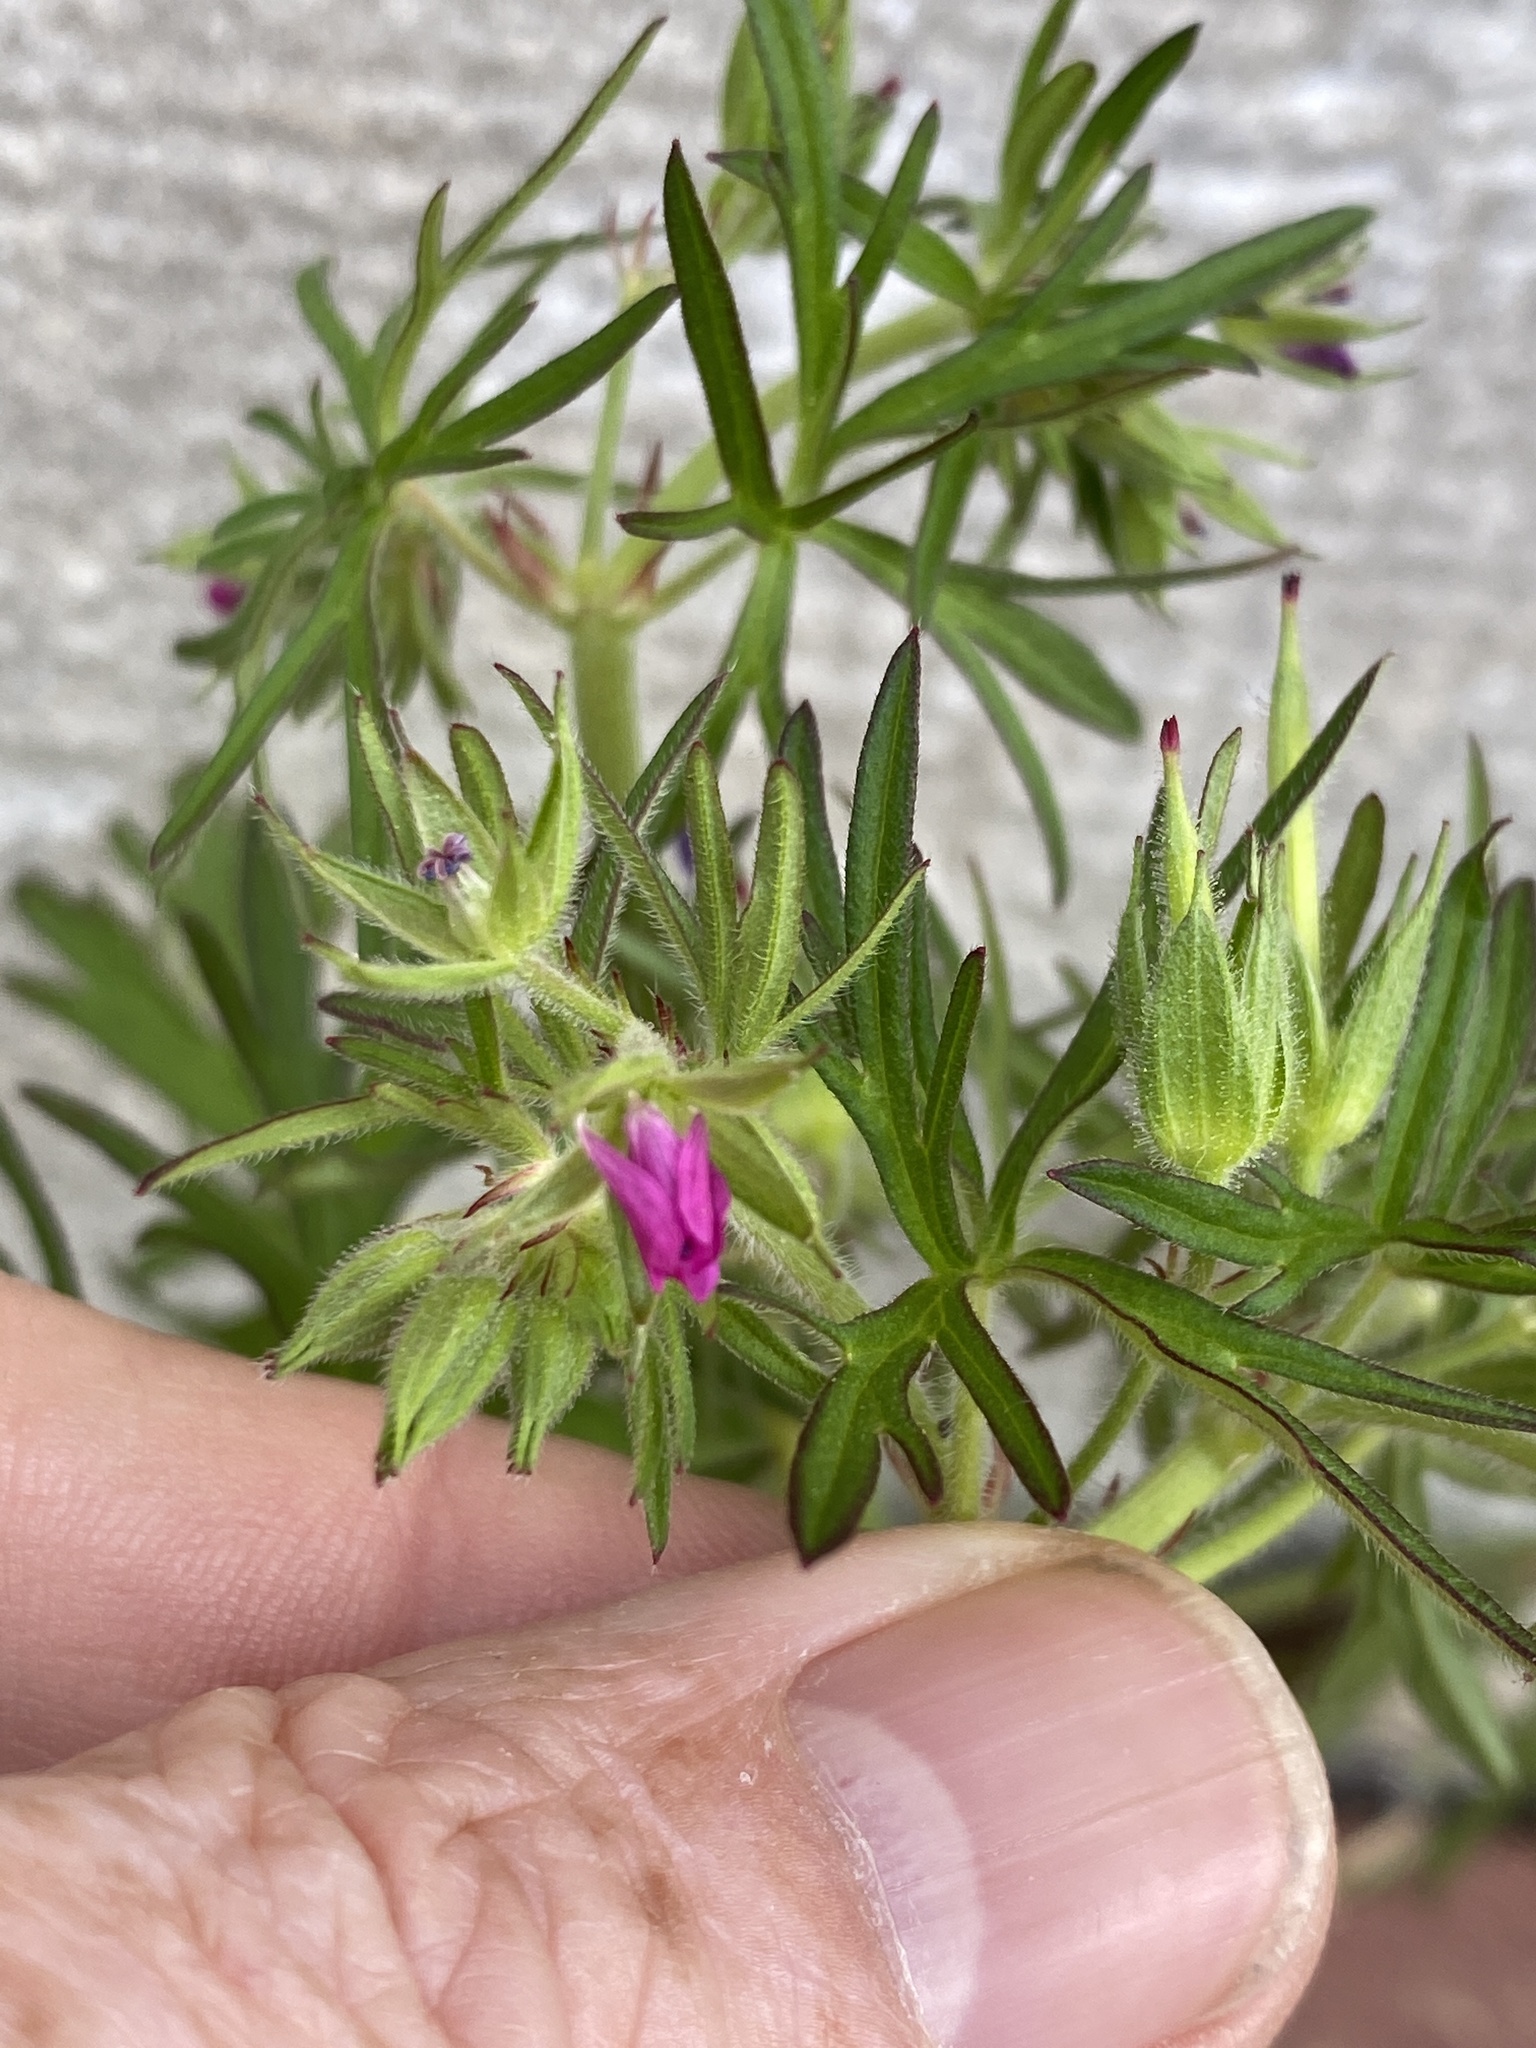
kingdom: Plantae
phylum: Tracheophyta
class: Magnoliopsida
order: Geraniales
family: Geraniaceae
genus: Geranium
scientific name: Geranium dissectum
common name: Cut-leaved crane's-bill
